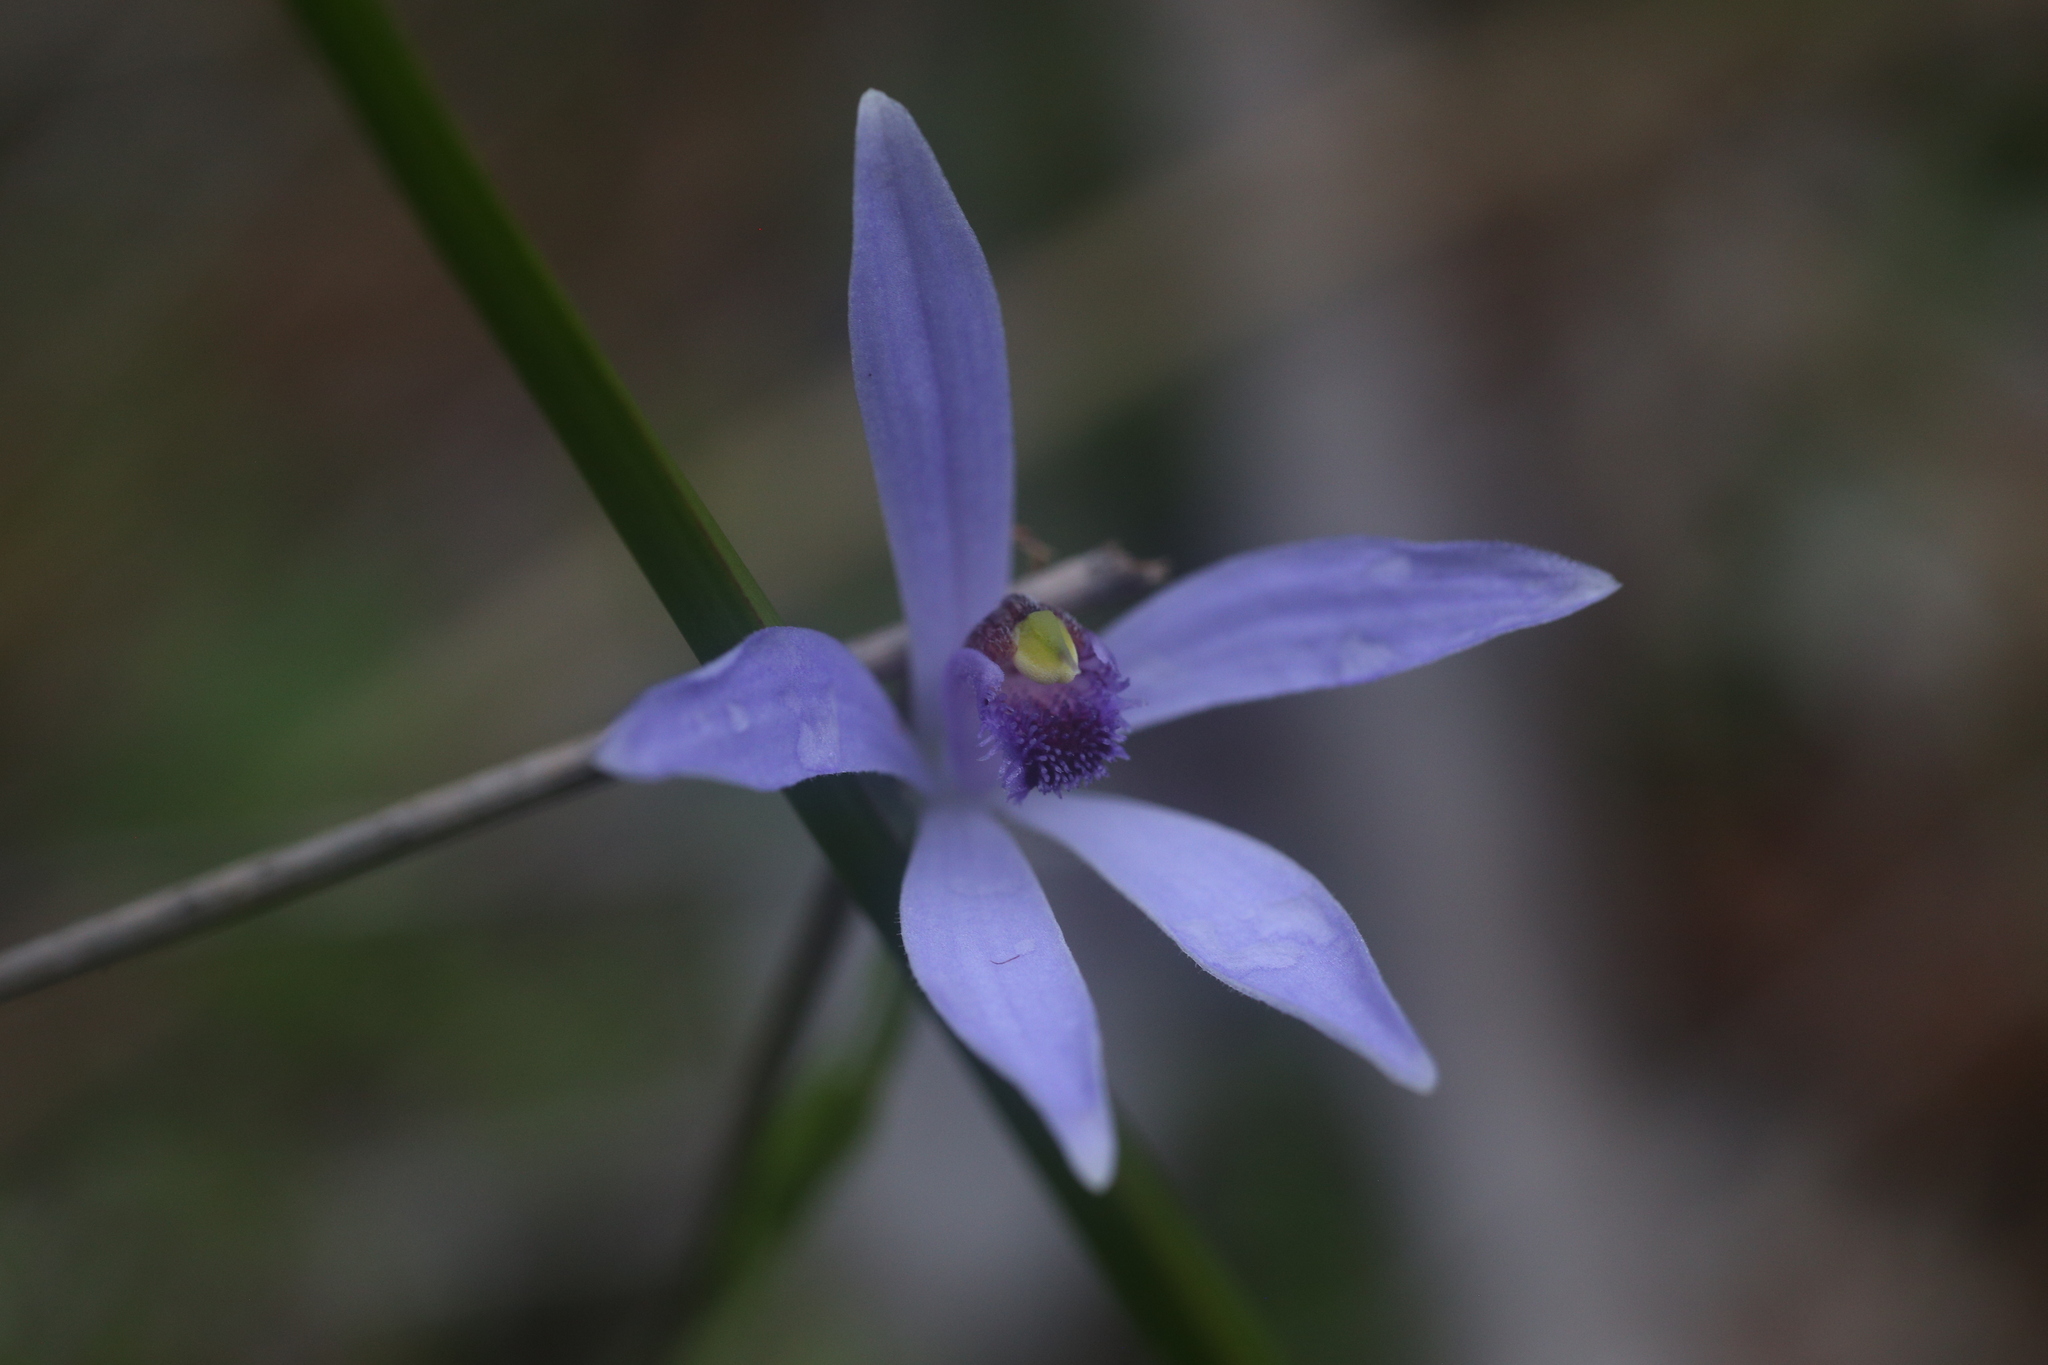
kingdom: Plantae
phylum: Tracheophyta
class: Liliopsida
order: Asparagales
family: Orchidaceae
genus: Pheladenia
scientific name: Pheladenia deformis
